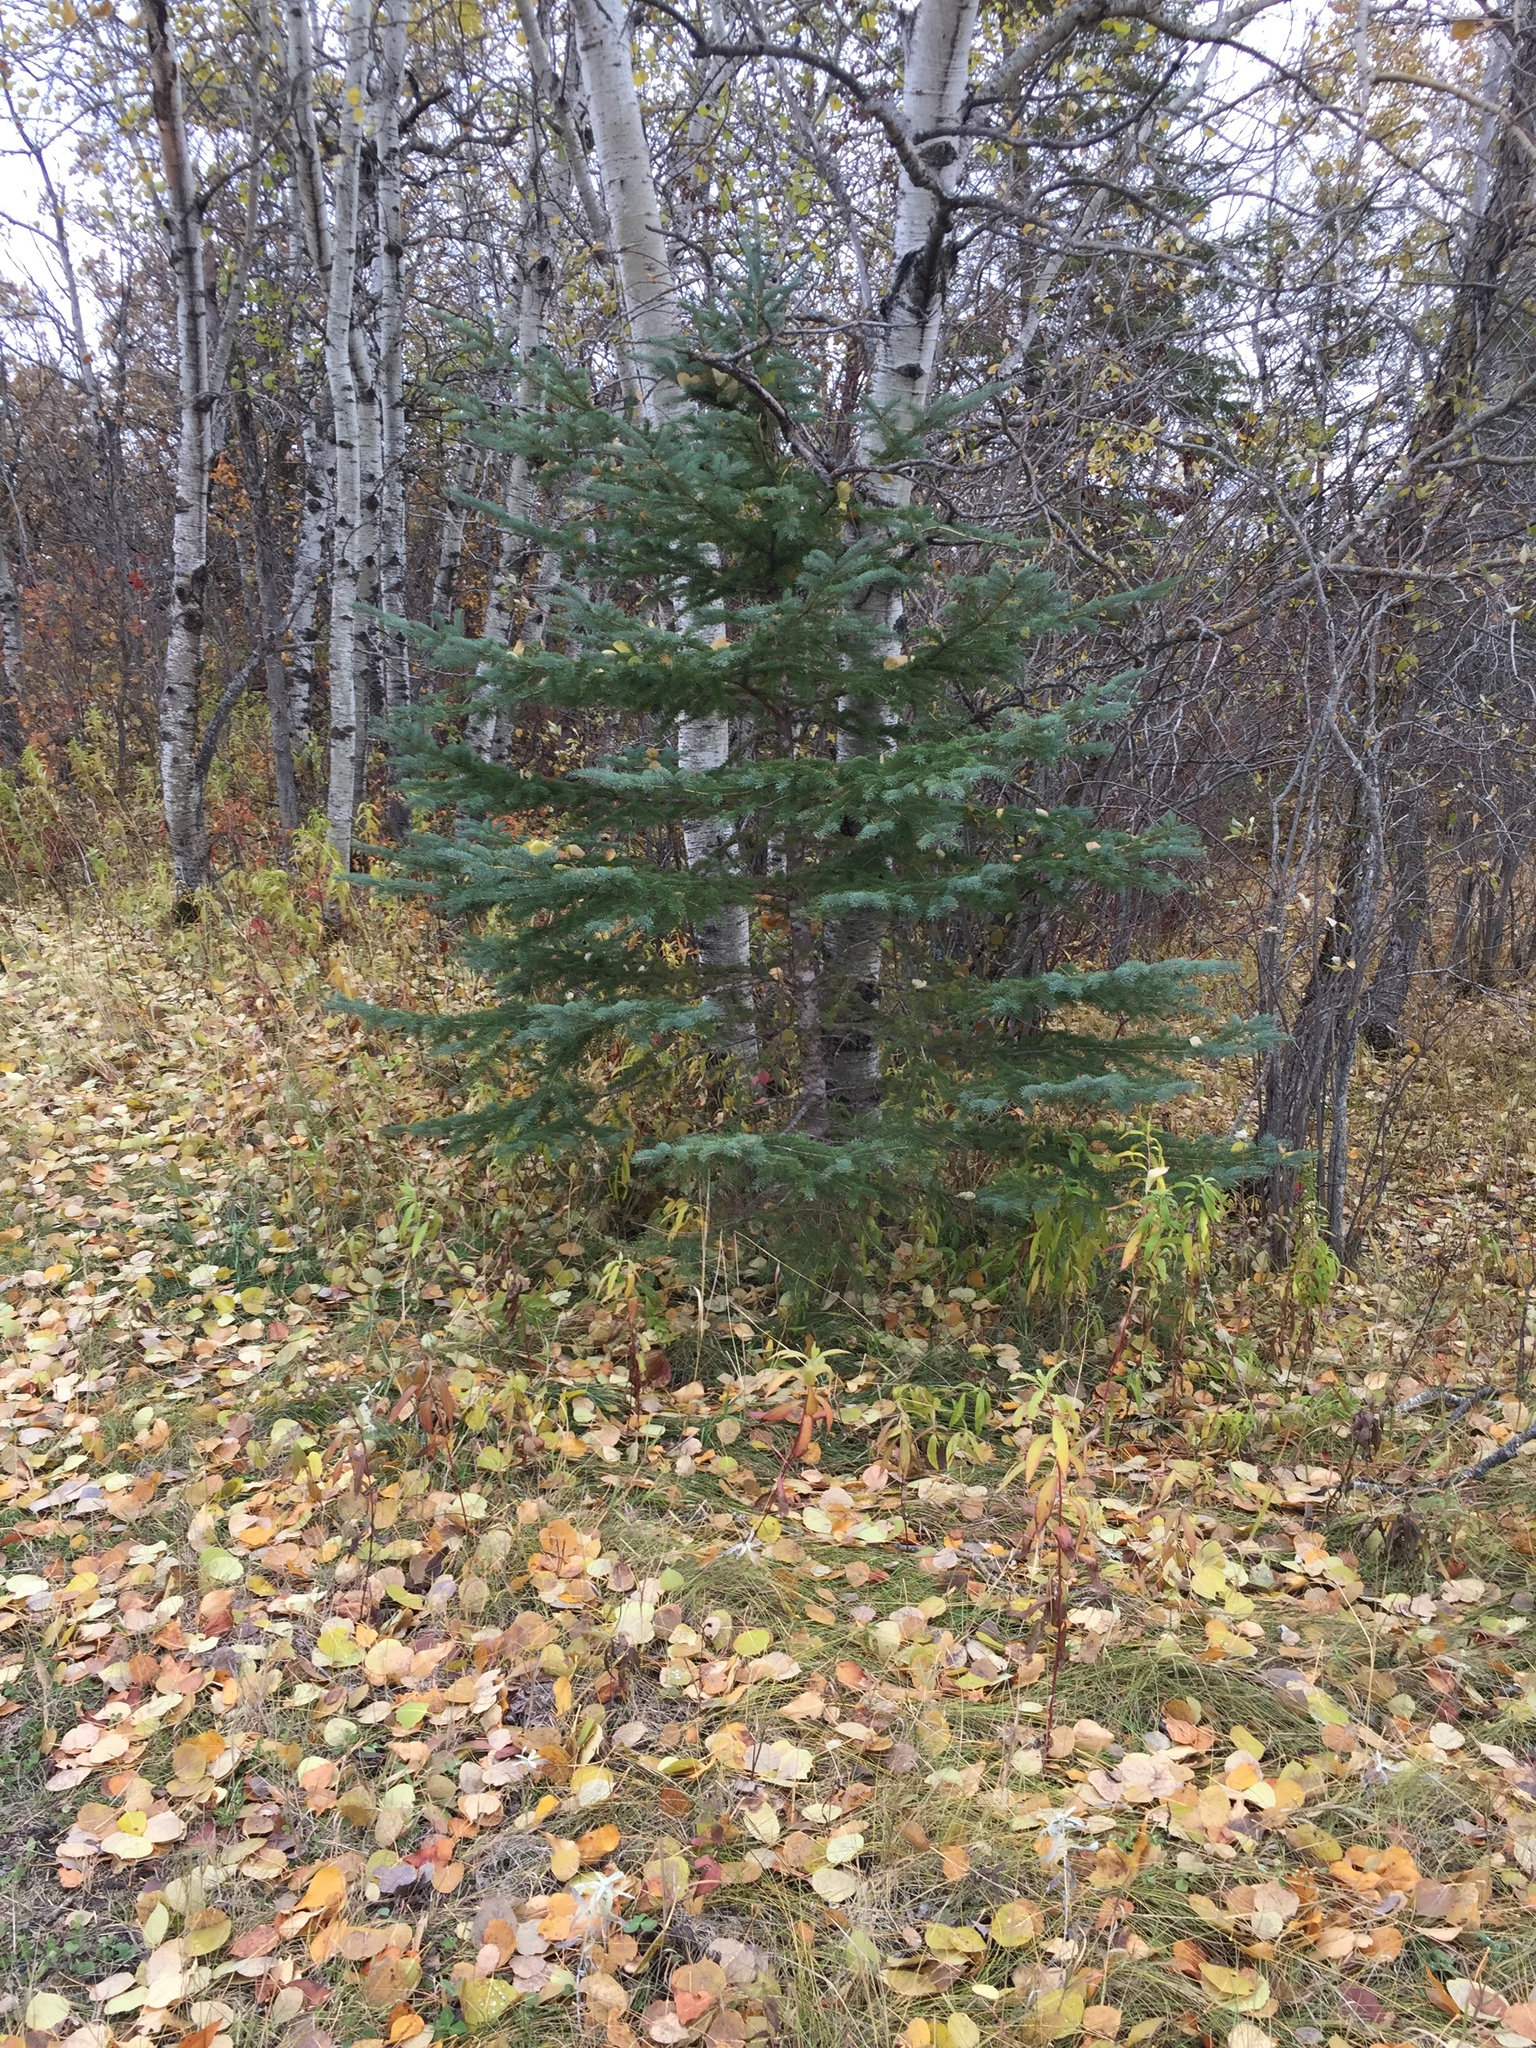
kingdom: Plantae
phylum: Tracheophyta
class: Pinopsida
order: Pinales
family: Pinaceae
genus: Picea
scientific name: Picea glauca
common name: White spruce
